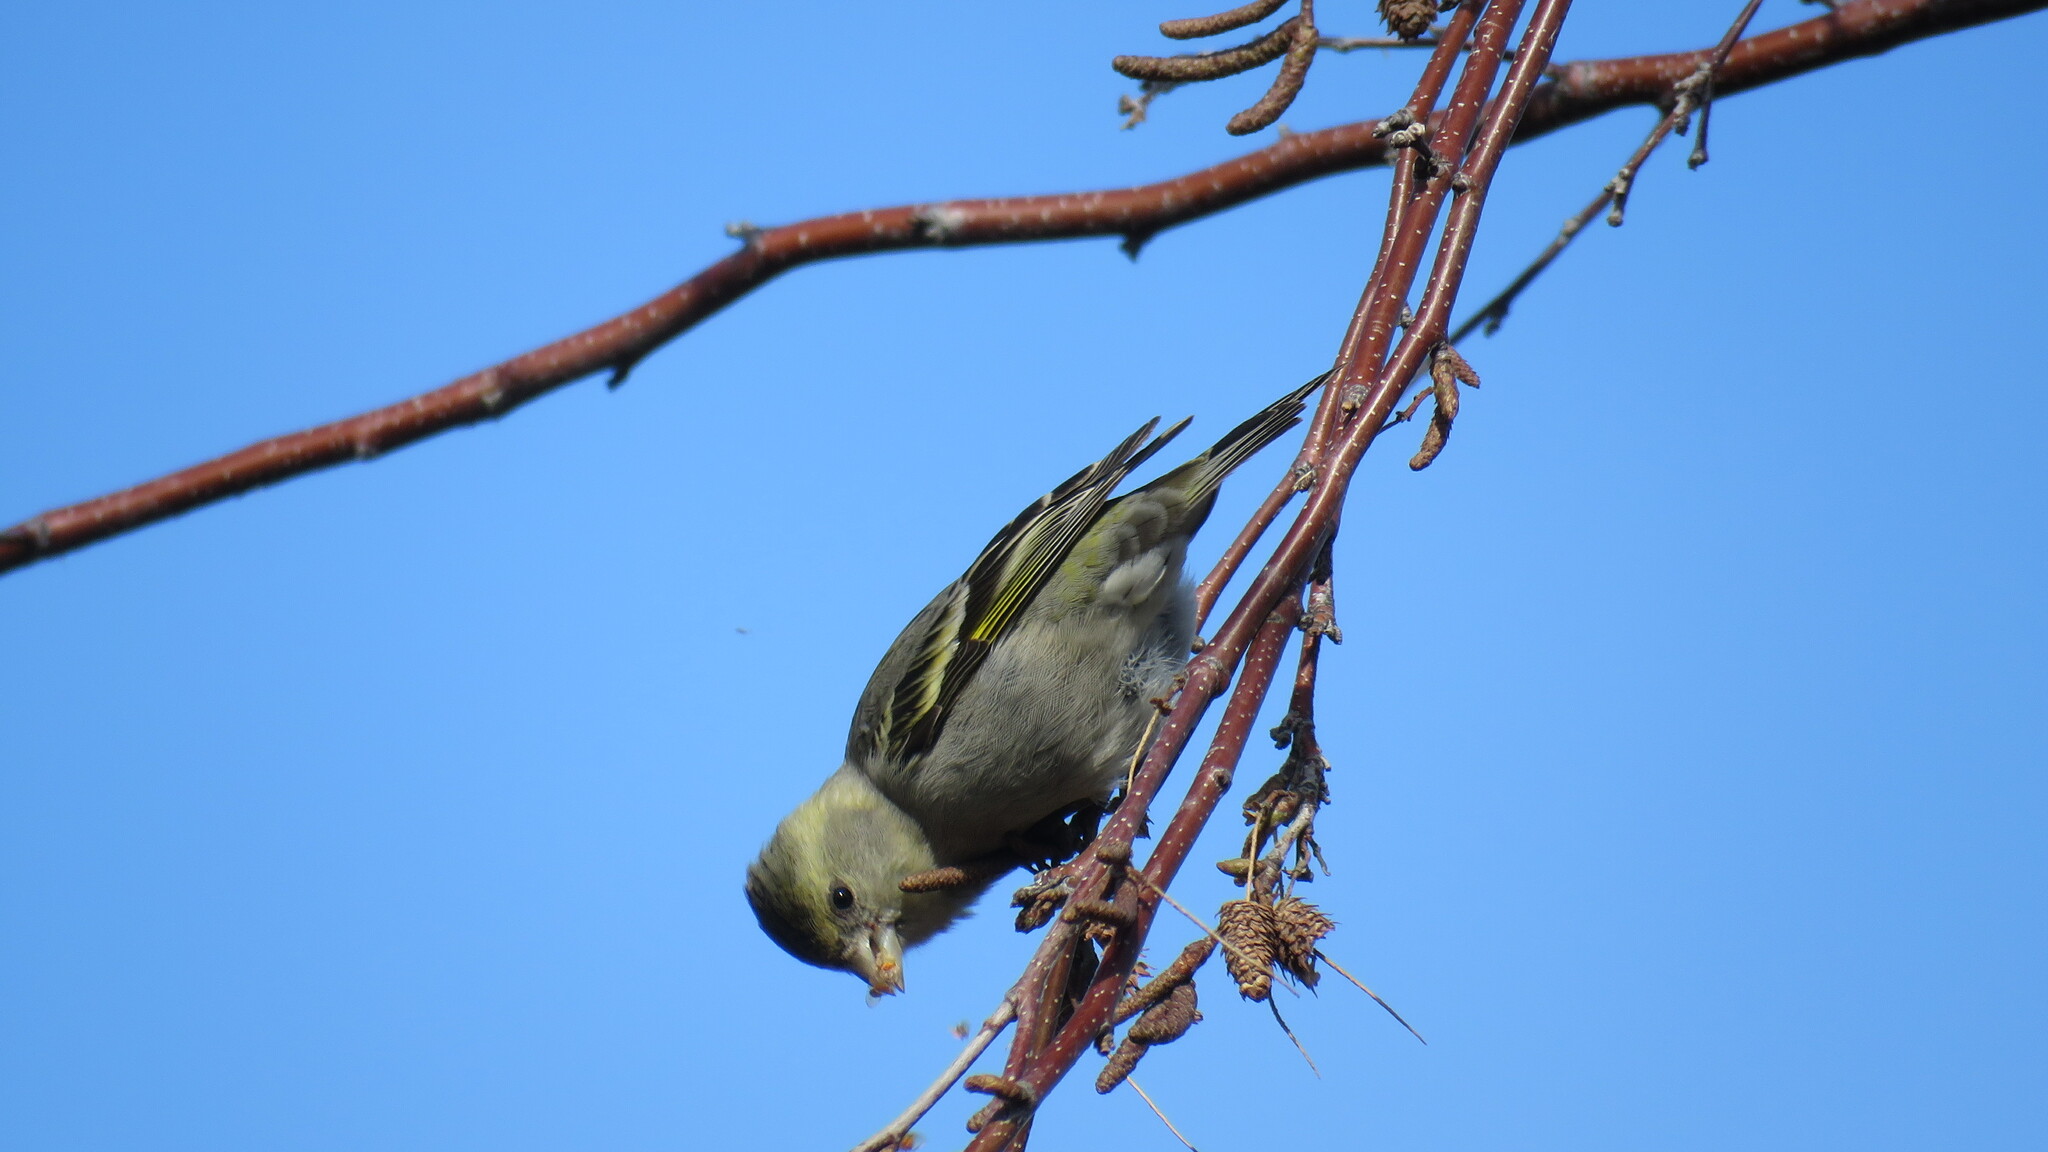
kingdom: Animalia
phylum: Chordata
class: Aves
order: Passeriformes
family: Fringillidae
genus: Spinus
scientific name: Spinus barbatus
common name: Black-chinned siskin
